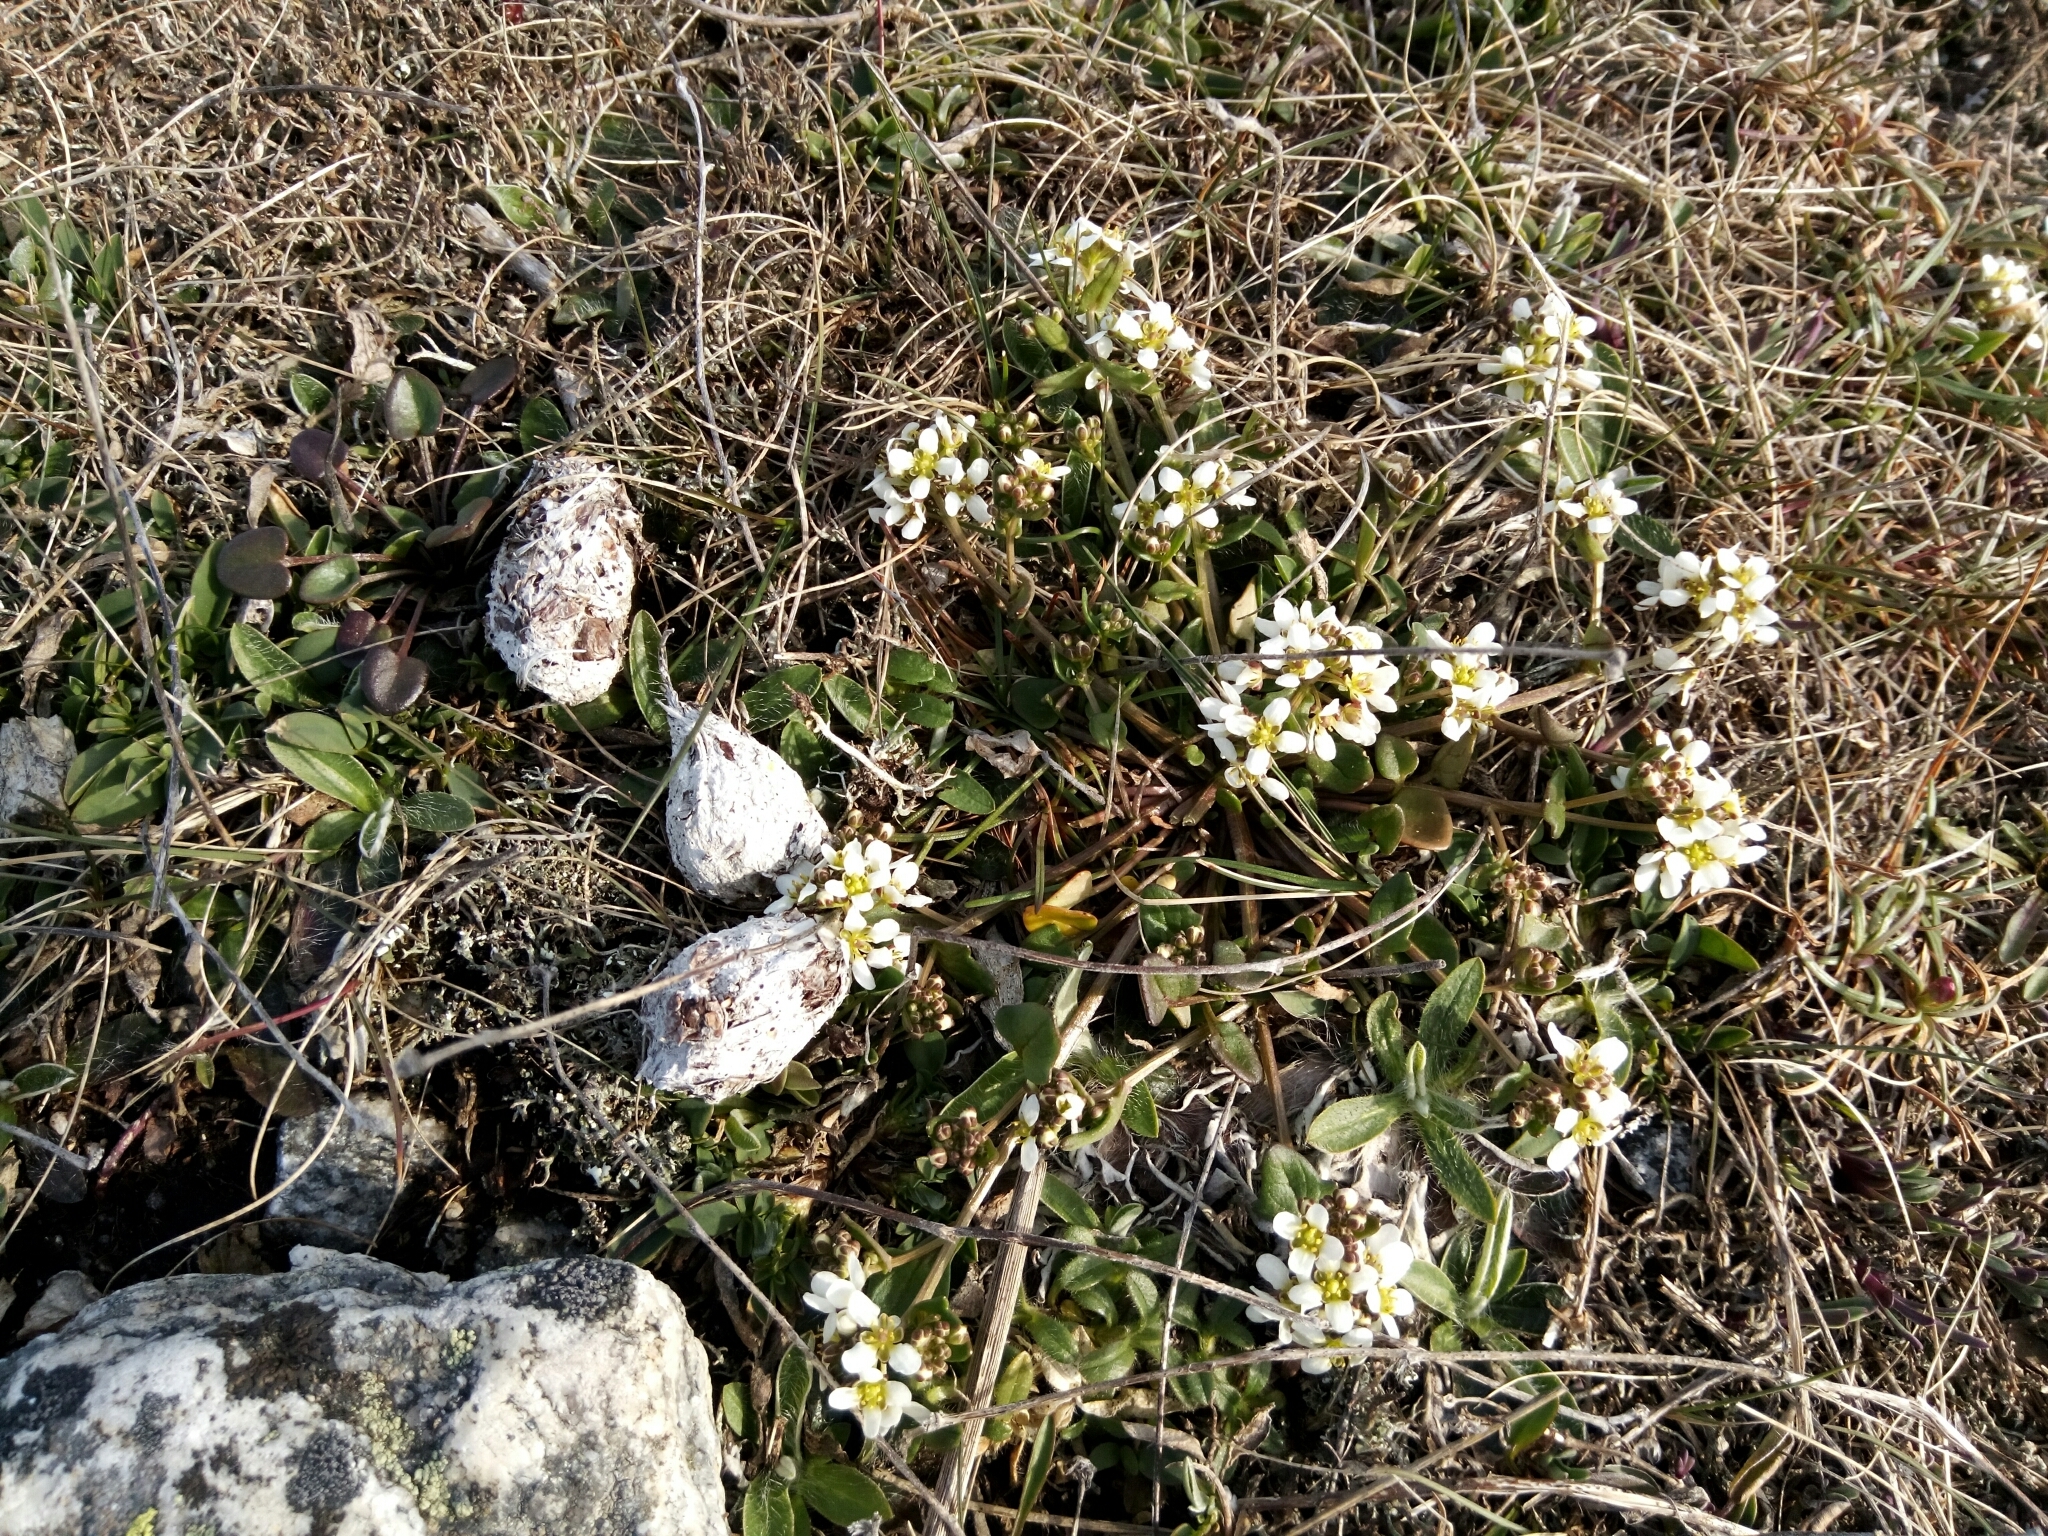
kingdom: Plantae
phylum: Tracheophyta
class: Magnoliopsida
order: Brassicales
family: Brassicaceae
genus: Cochlearia
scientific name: Cochlearia officinalis
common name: Scurvy-grass
